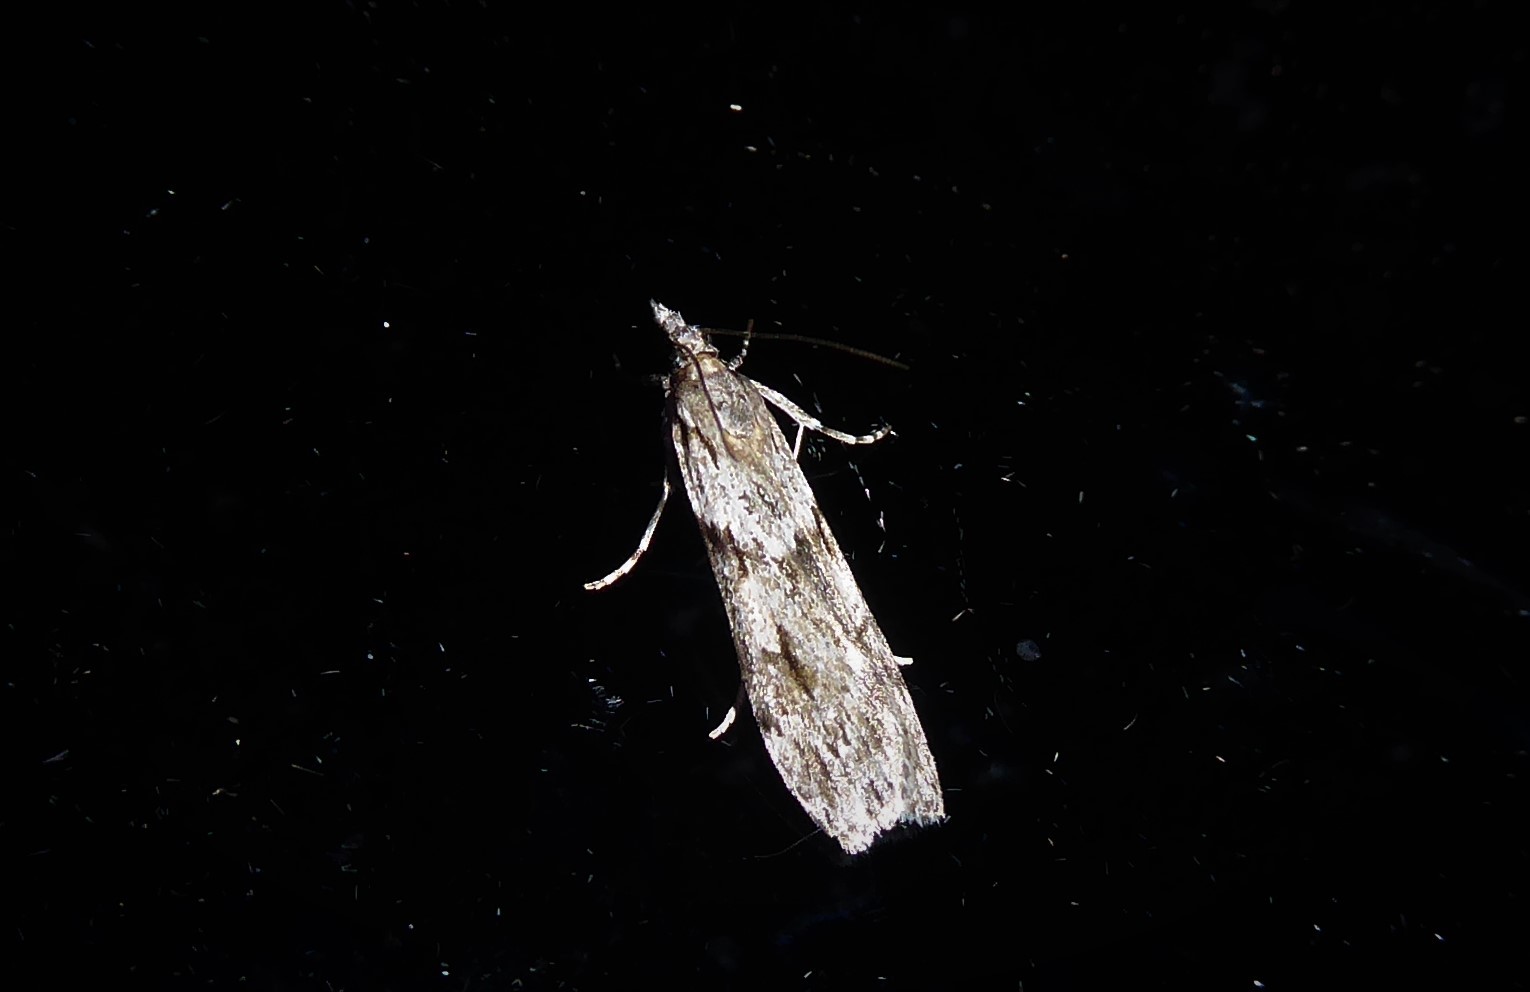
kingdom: Animalia
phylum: Arthropoda
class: Insecta
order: Lepidoptera
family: Crambidae
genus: Scoparia
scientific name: Scoparia halopis
